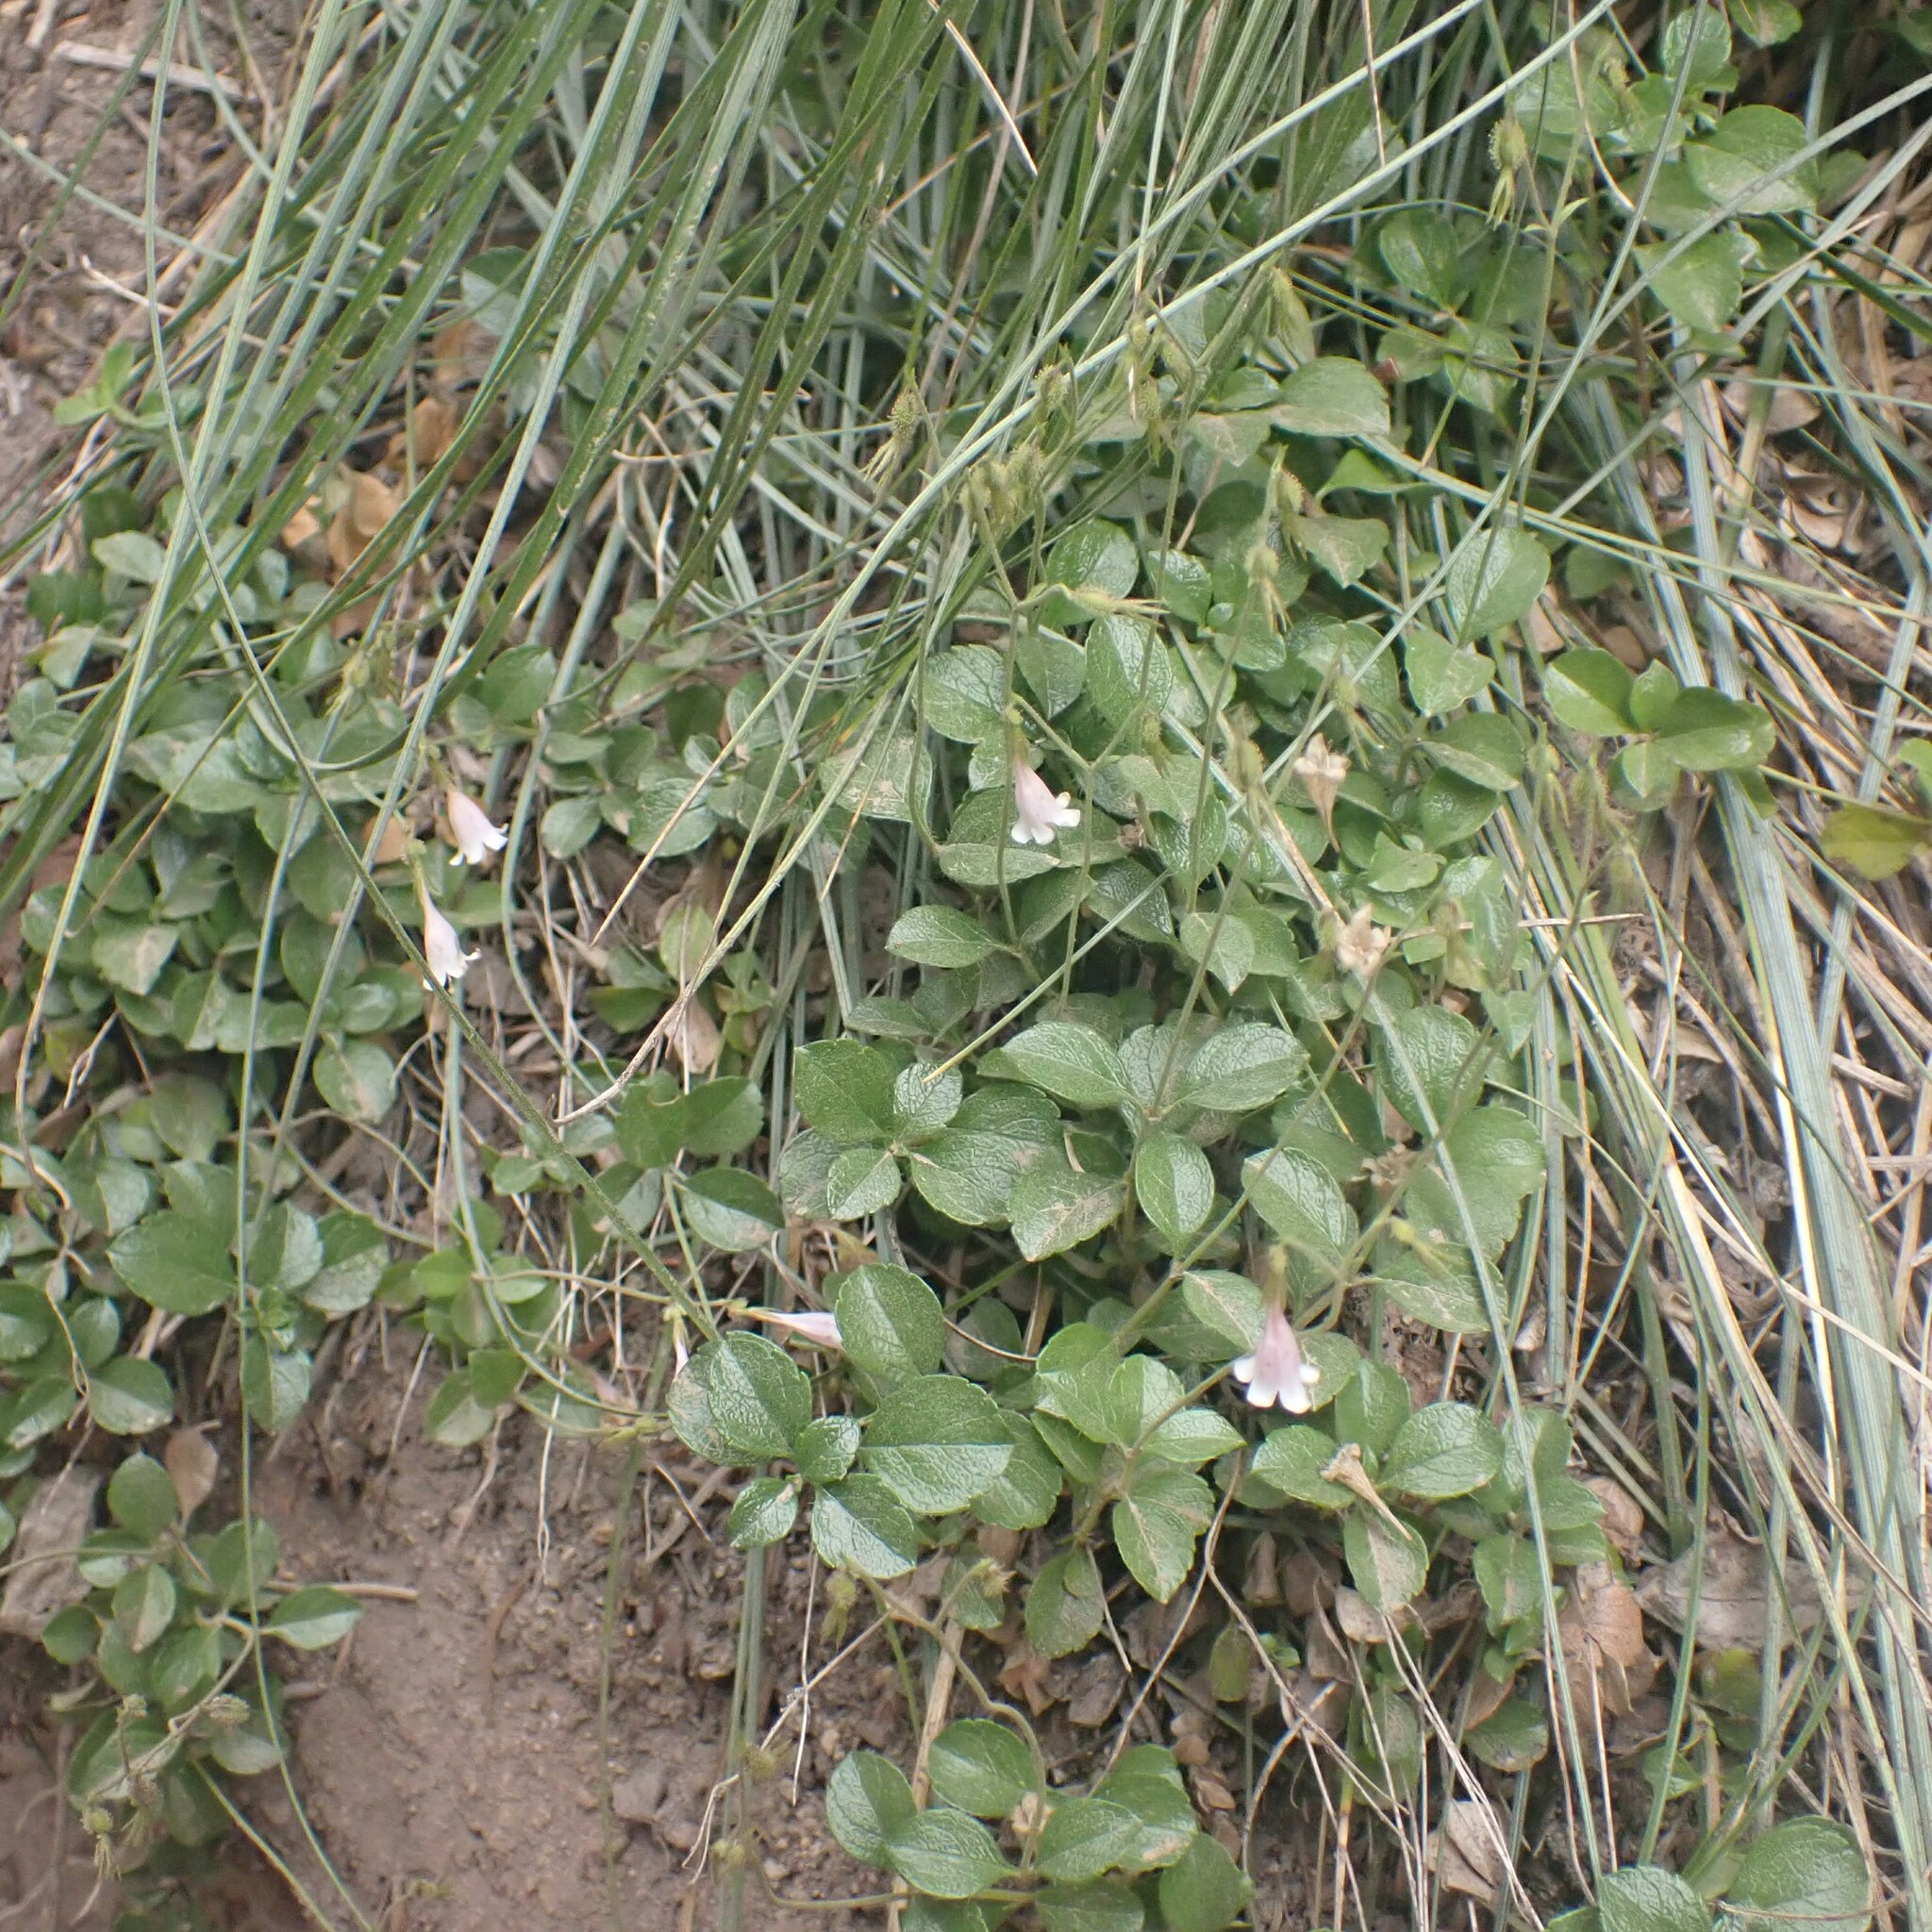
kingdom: Plantae
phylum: Tracheophyta
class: Magnoliopsida
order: Dipsacales
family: Caprifoliaceae
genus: Linnaea
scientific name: Linnaea borealis
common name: Twinflower
